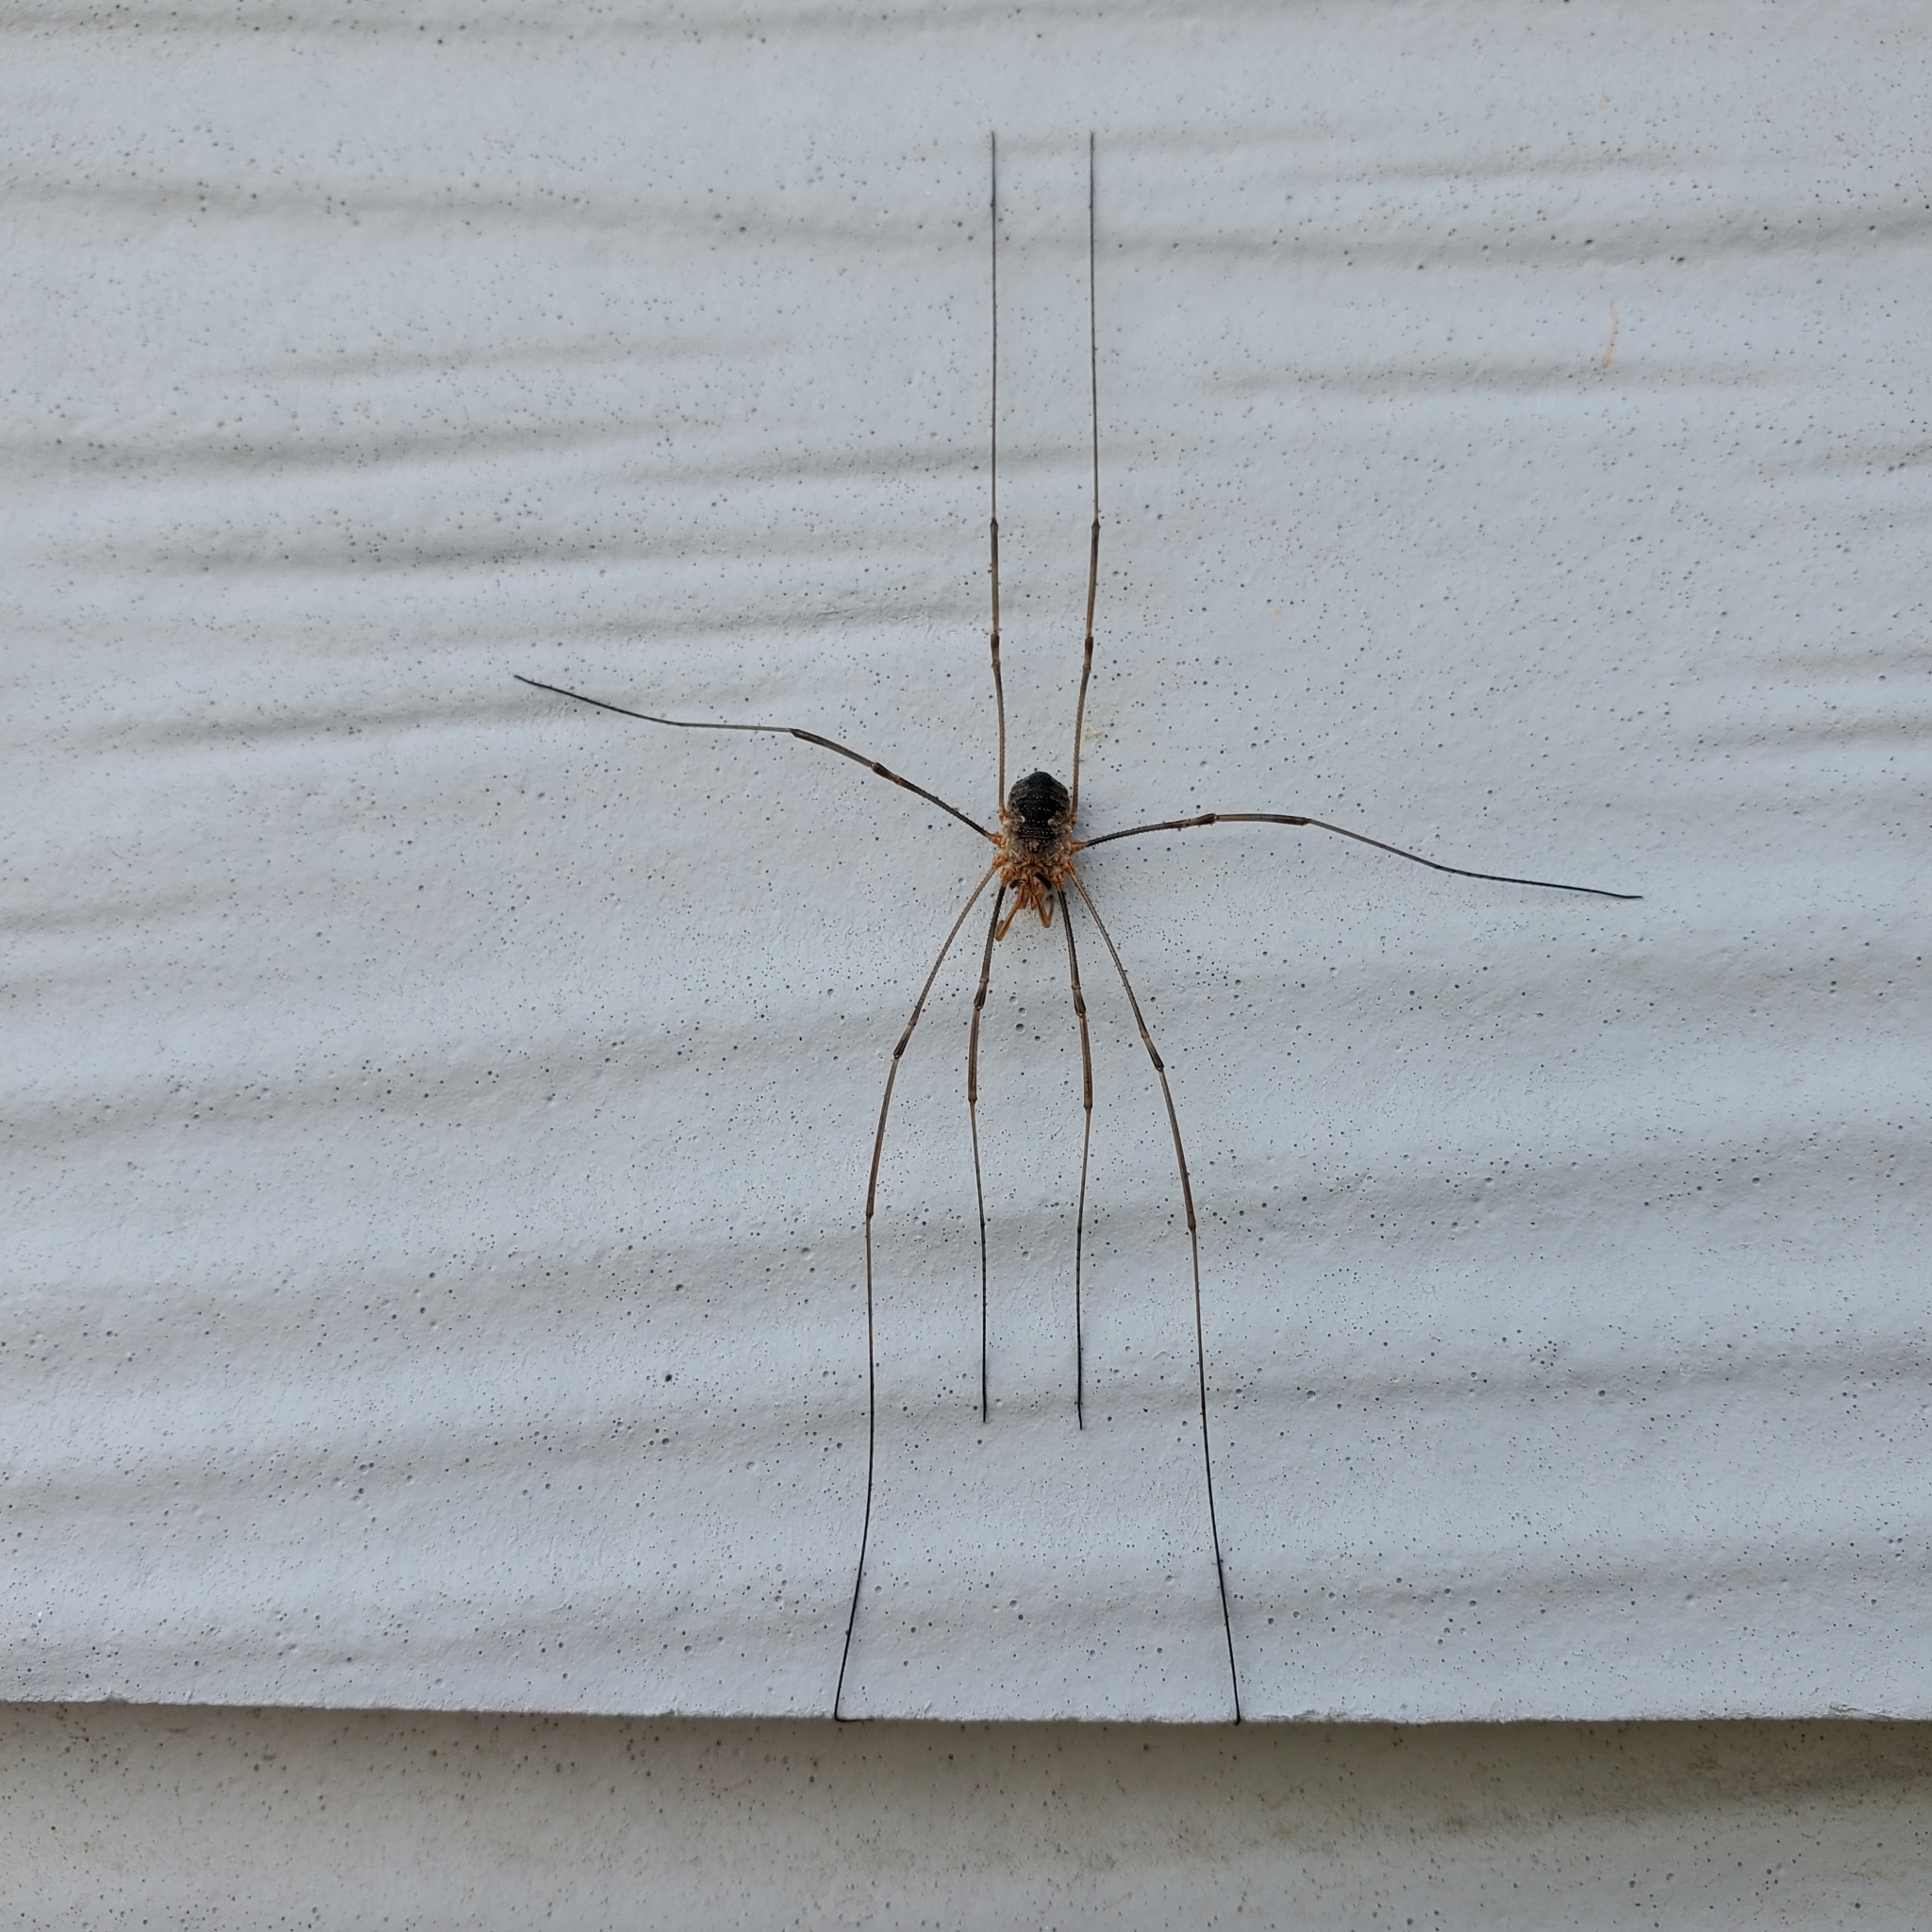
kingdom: Animalia
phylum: Arthropoda
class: Arachnida
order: Opiliones
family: Phalangiidae
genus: Phalangium
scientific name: Phalangium opilio
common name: Daddy longleg
